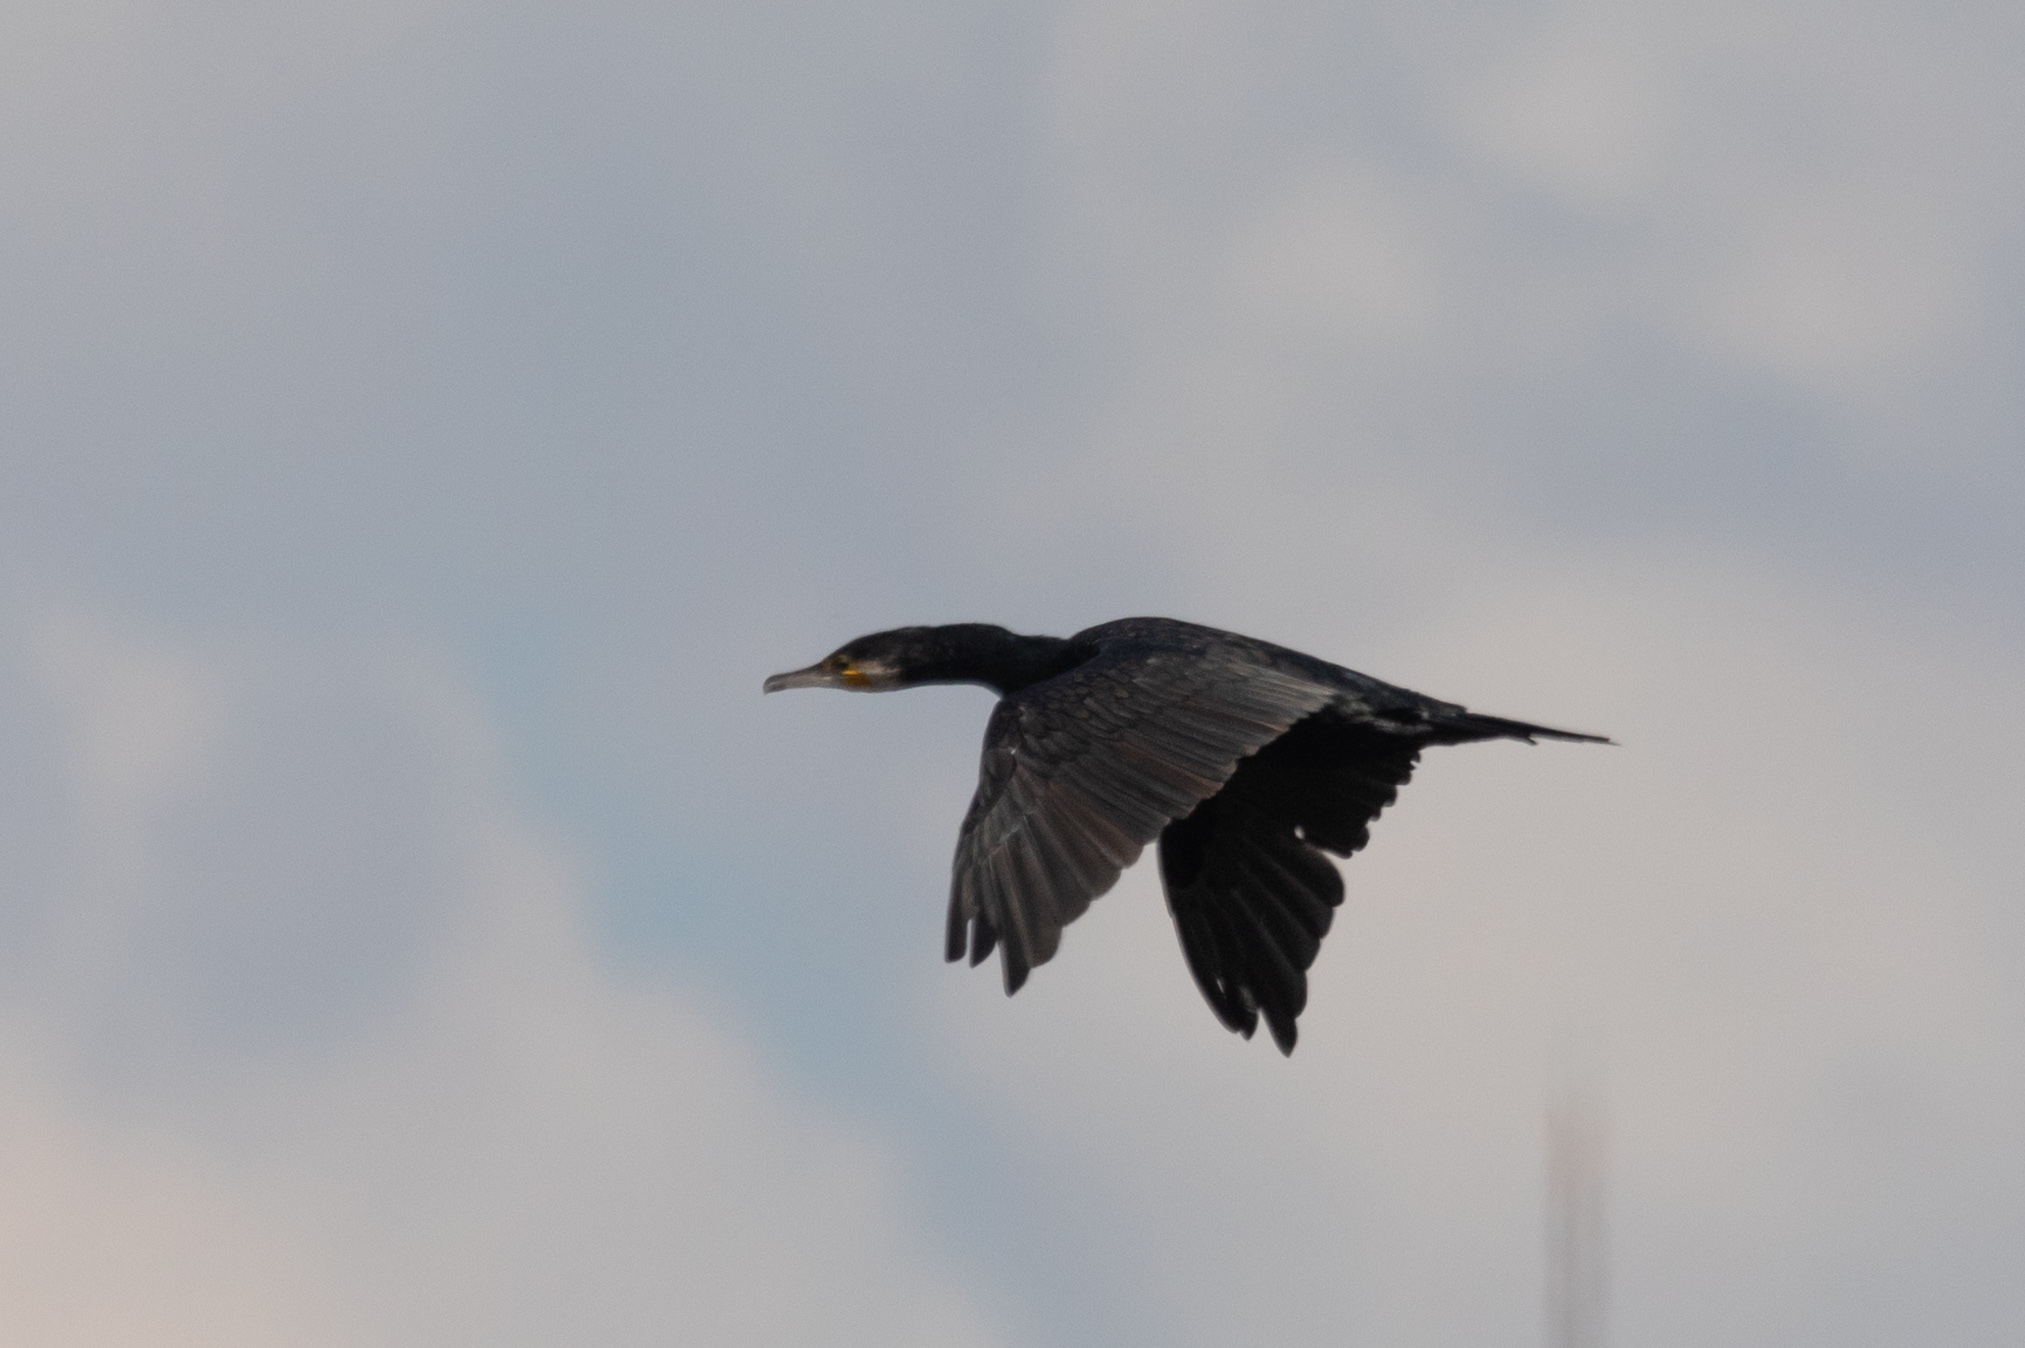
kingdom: Animalia
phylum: Chordata
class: Aves
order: Suliformes
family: Phalacrocoracidae
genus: Phalacrocorax
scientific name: Phalacrocorax carbo
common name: Great cormorant
